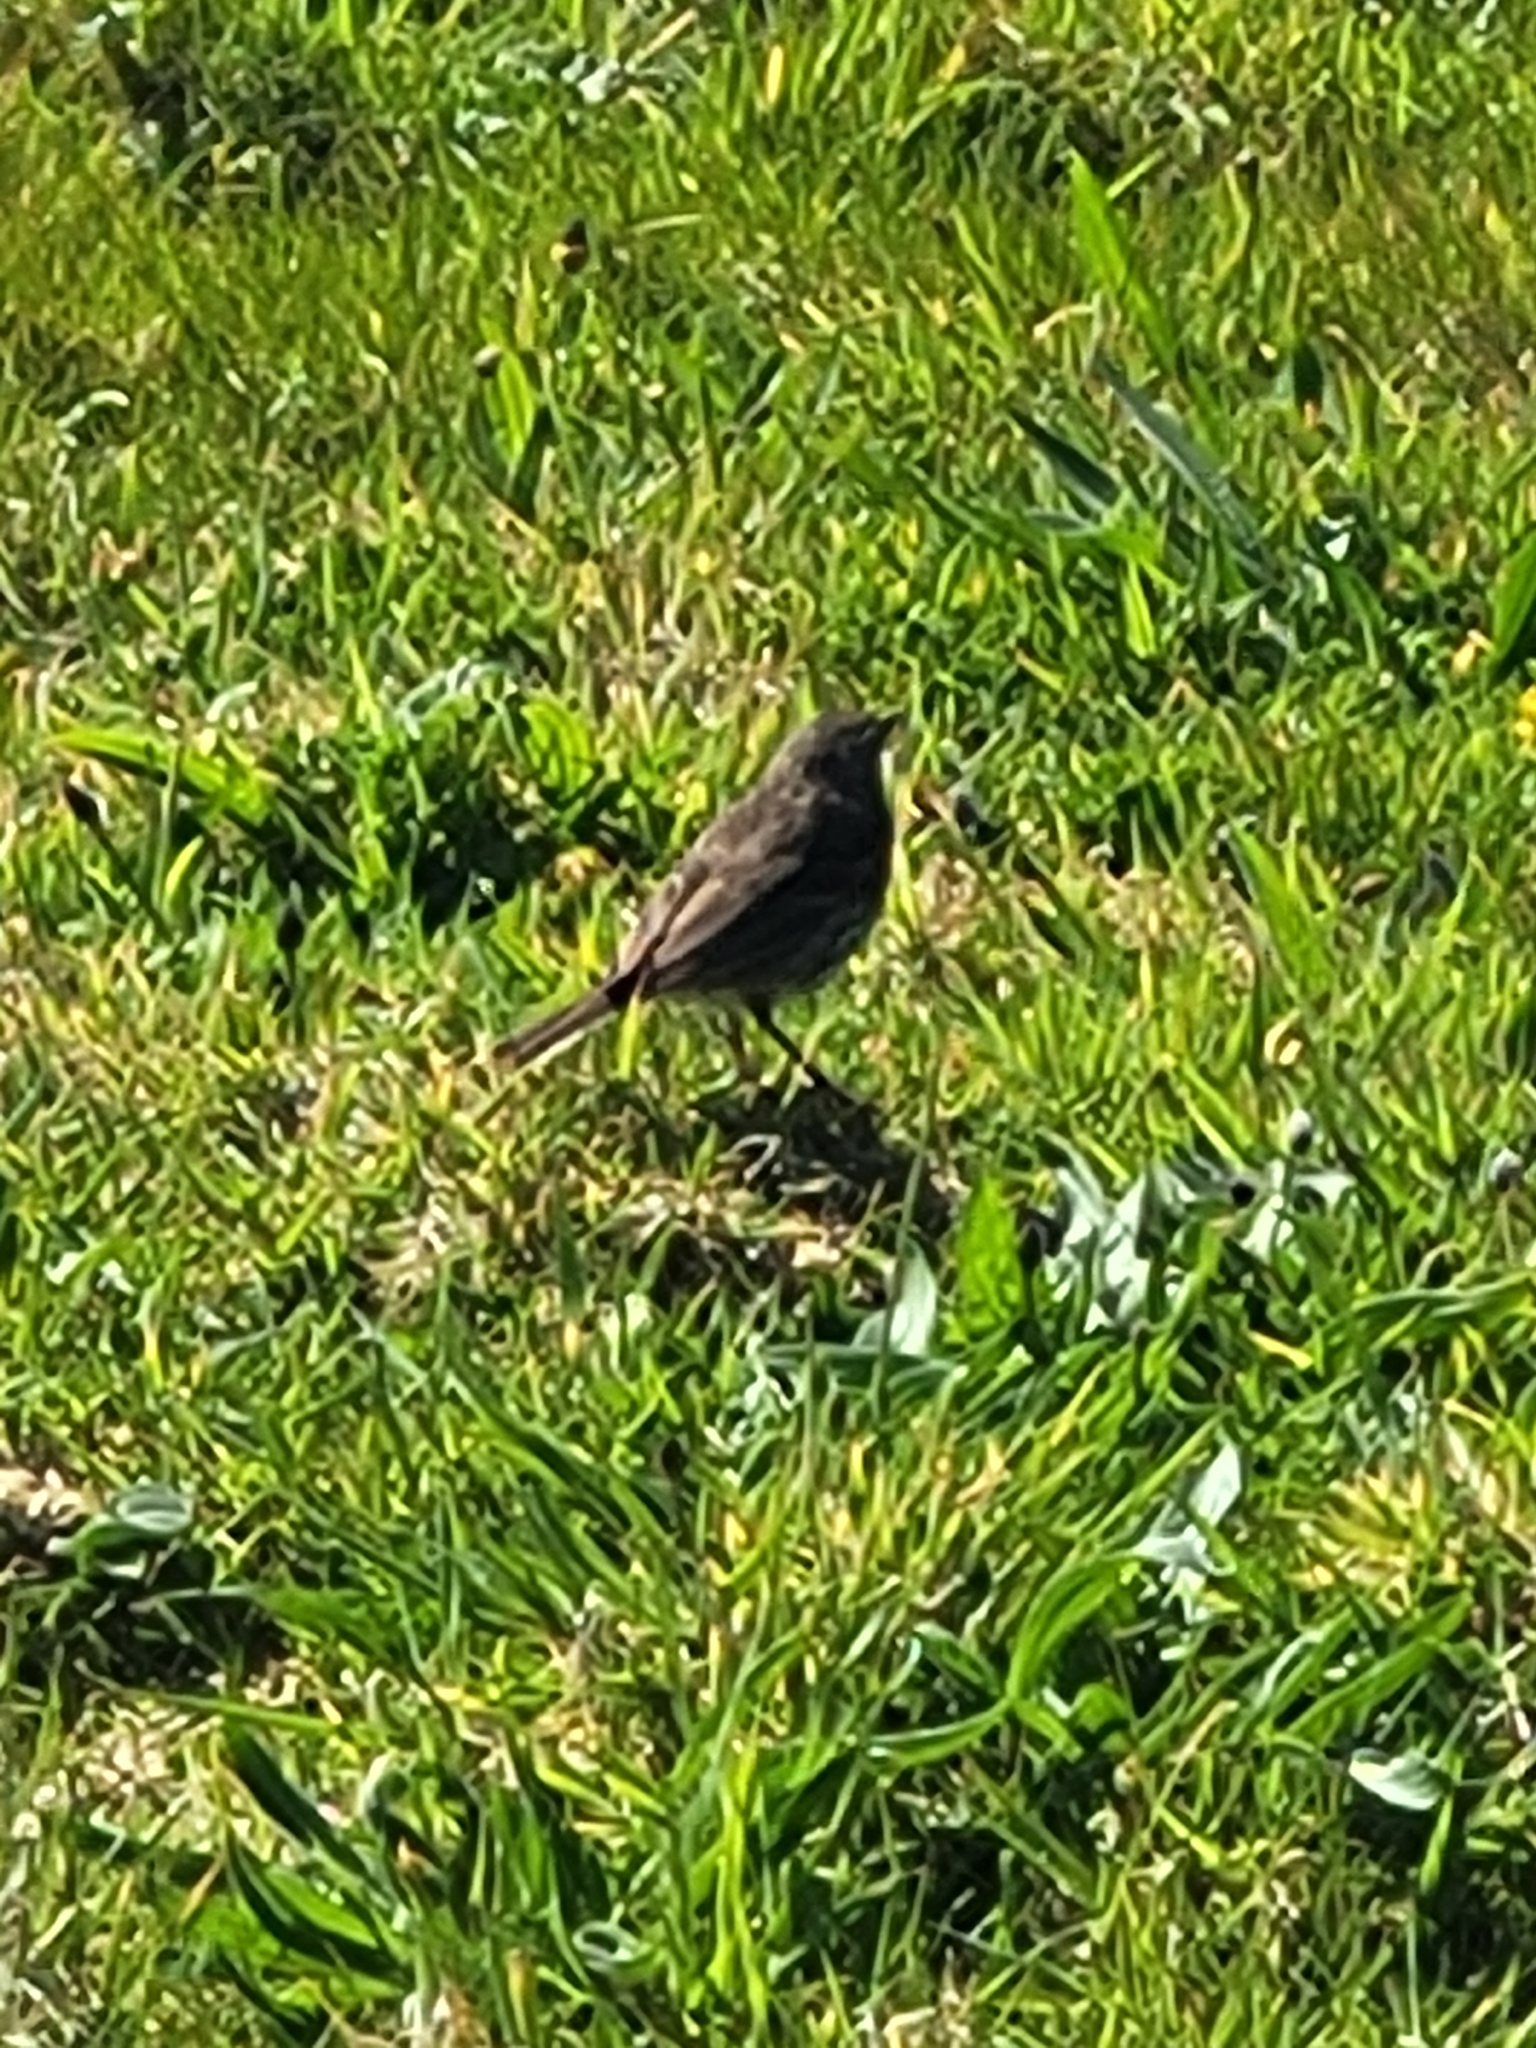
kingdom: Animalia
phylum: Chordata
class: Aves
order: Passeriformes
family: Motacillidae
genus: Anthus
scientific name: Anthus petrosus
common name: Eurasian rock pipit
